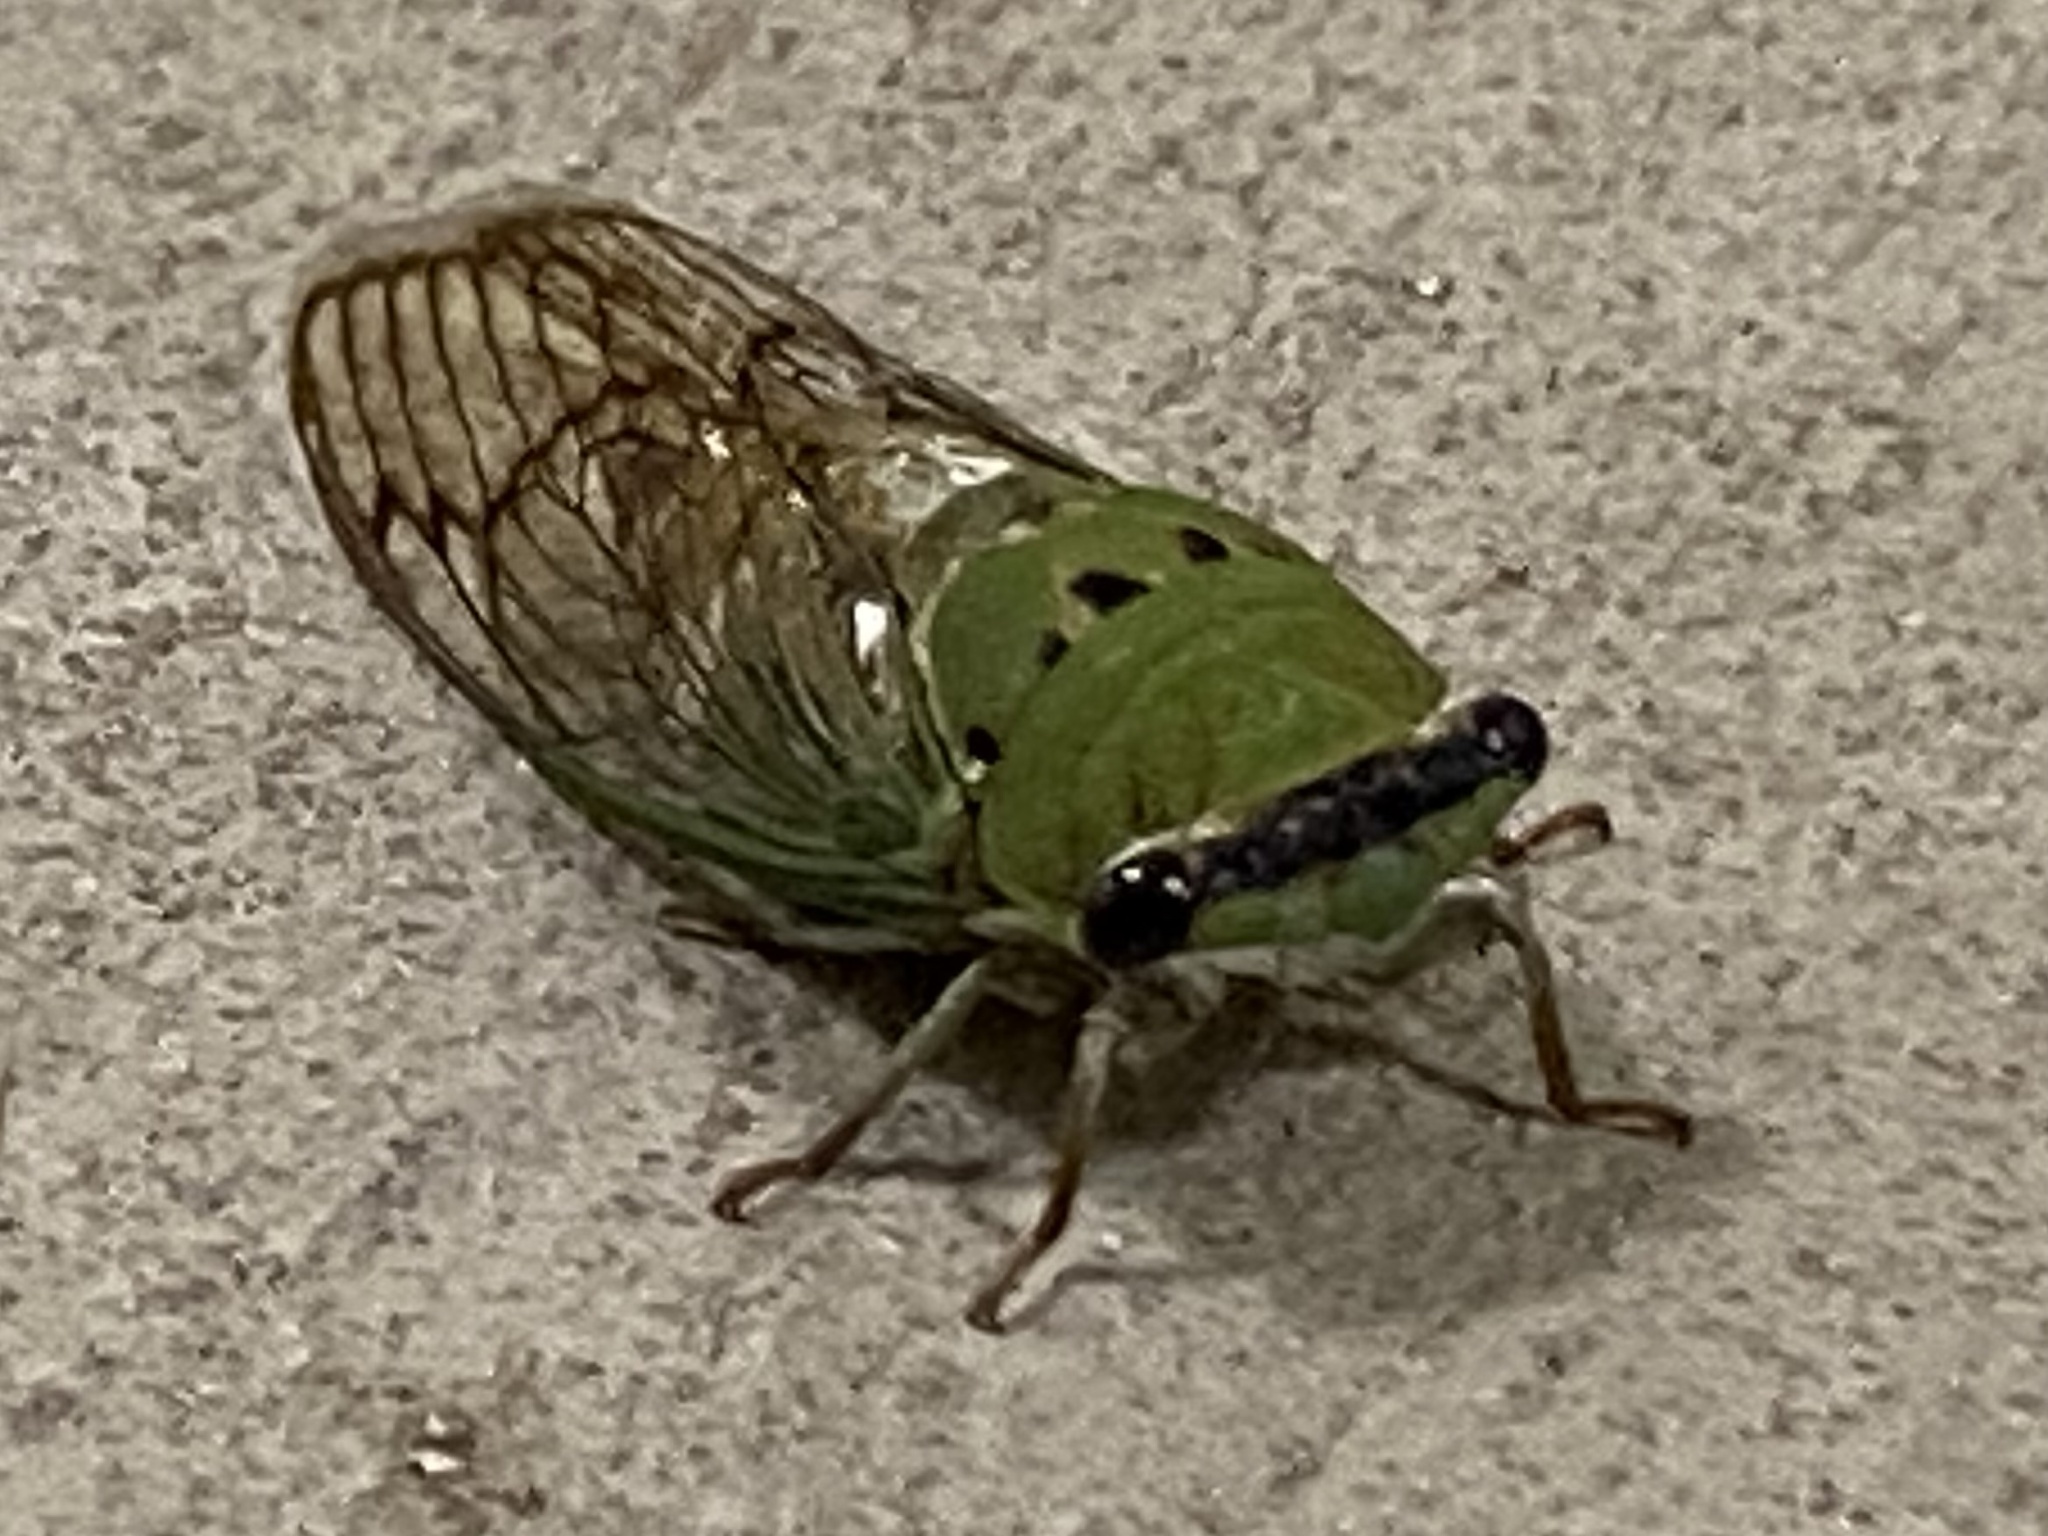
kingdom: Animalia
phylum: Arthropoda
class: Insecta
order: Hemiptera
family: Cicadidae
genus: Neotibicen
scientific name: Neotibicen superbus
